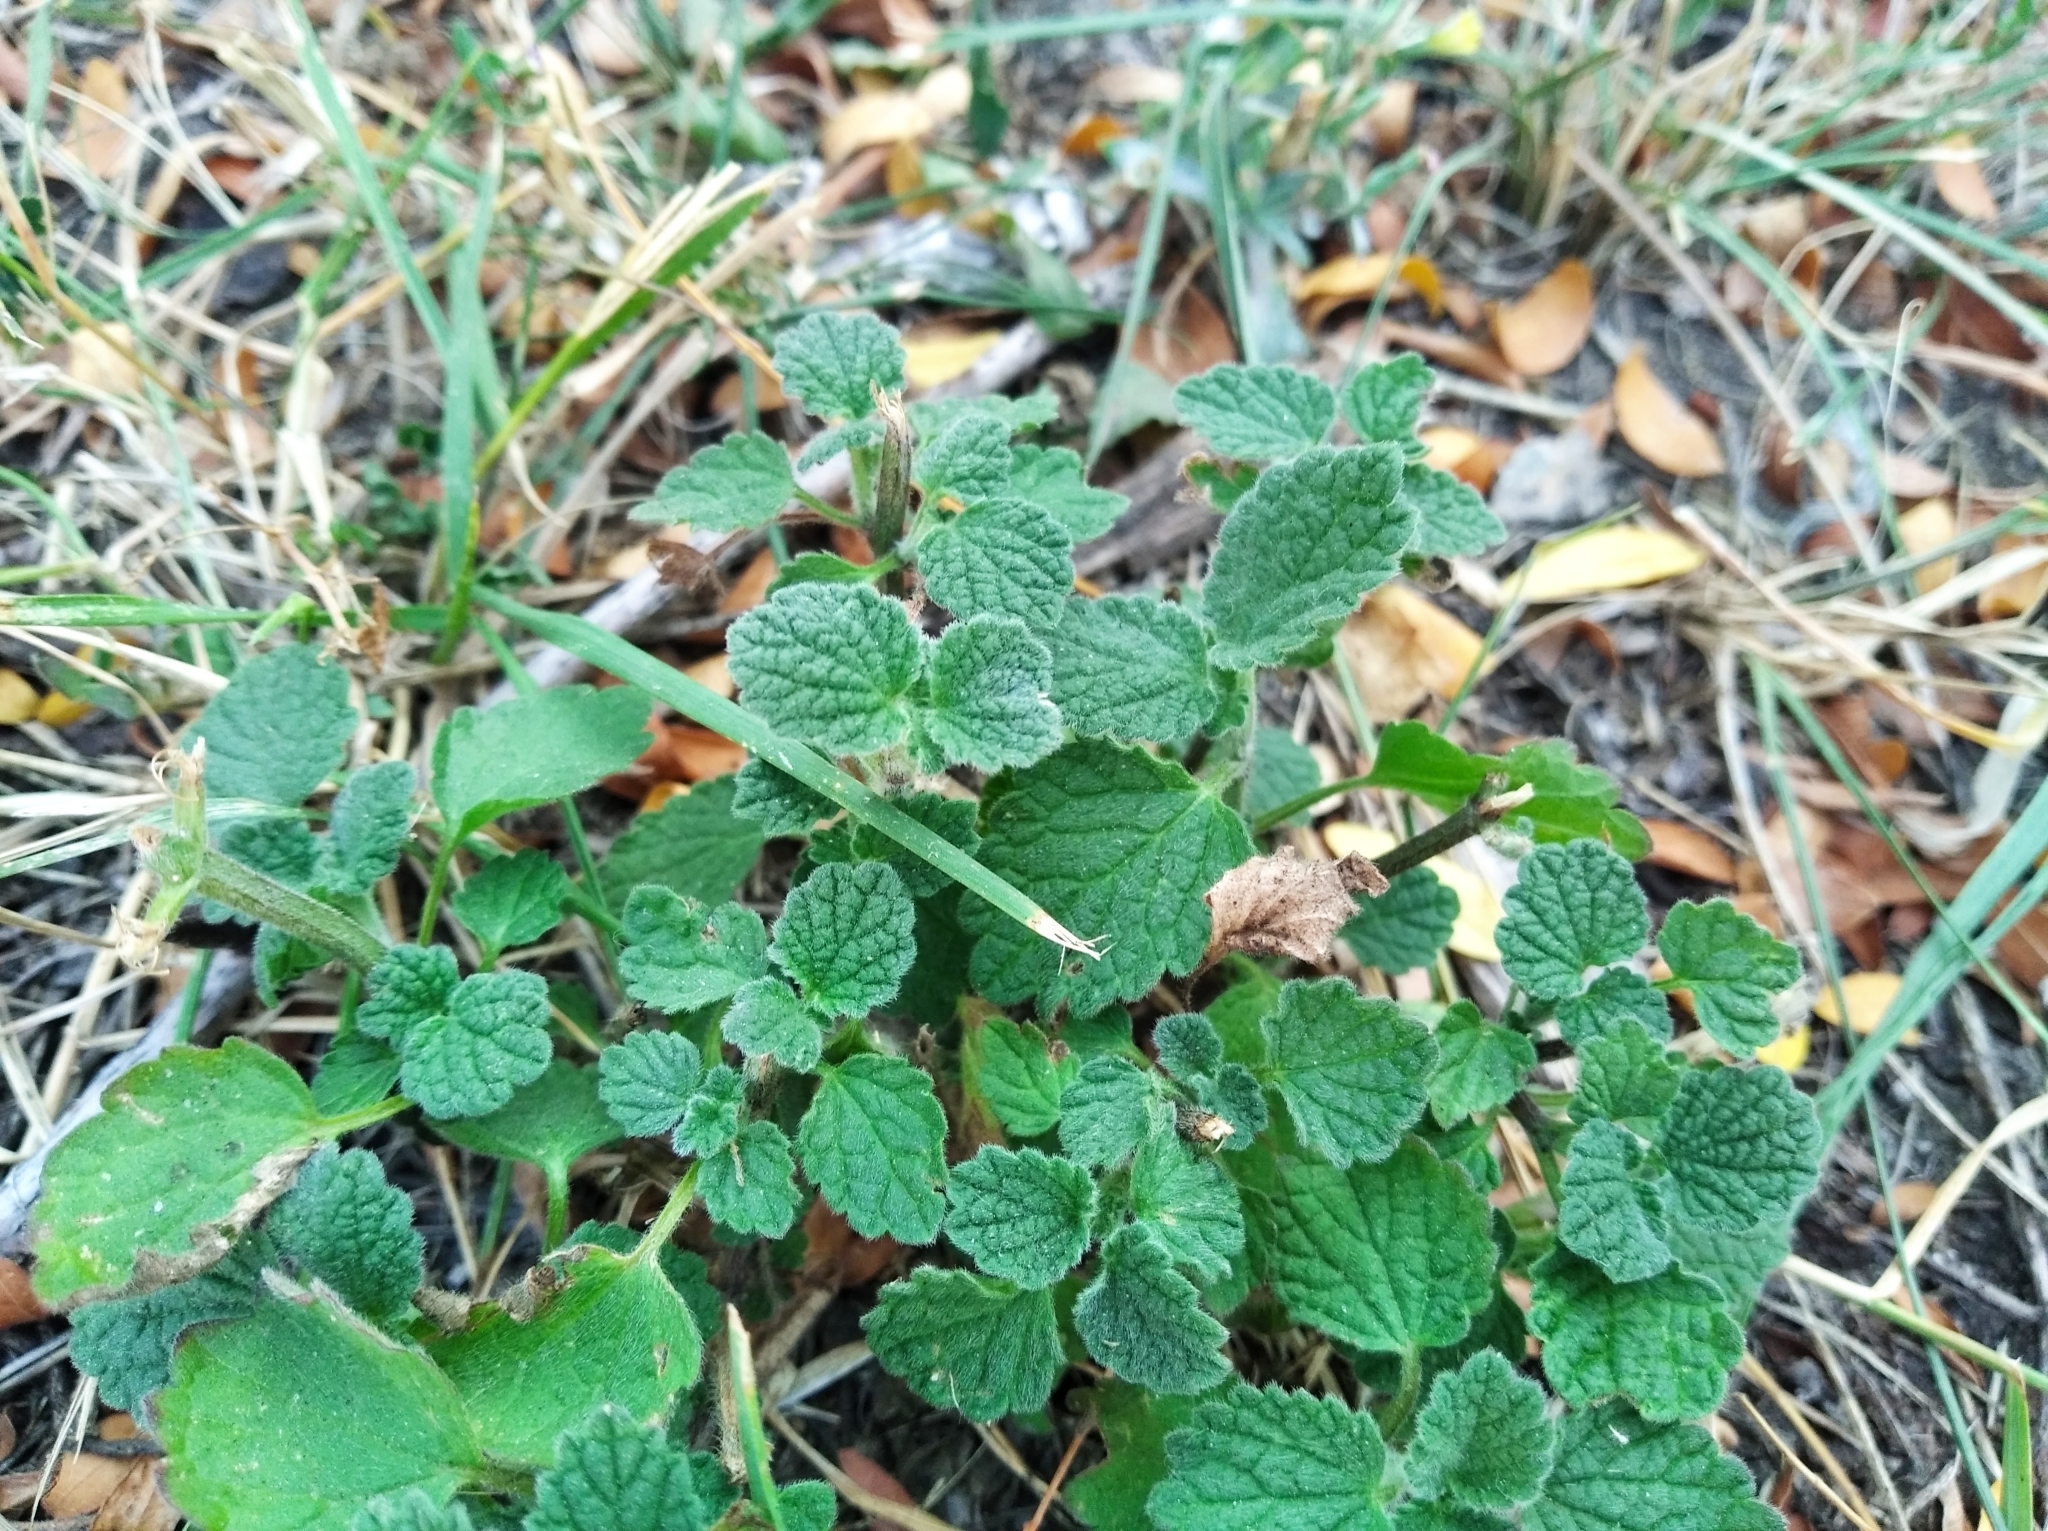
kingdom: Plantae
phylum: Tracheophyta
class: Magnoliopsida
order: Lamiales
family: Lamiaceae
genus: Ballota
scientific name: Ballota nigra
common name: Black horehound
